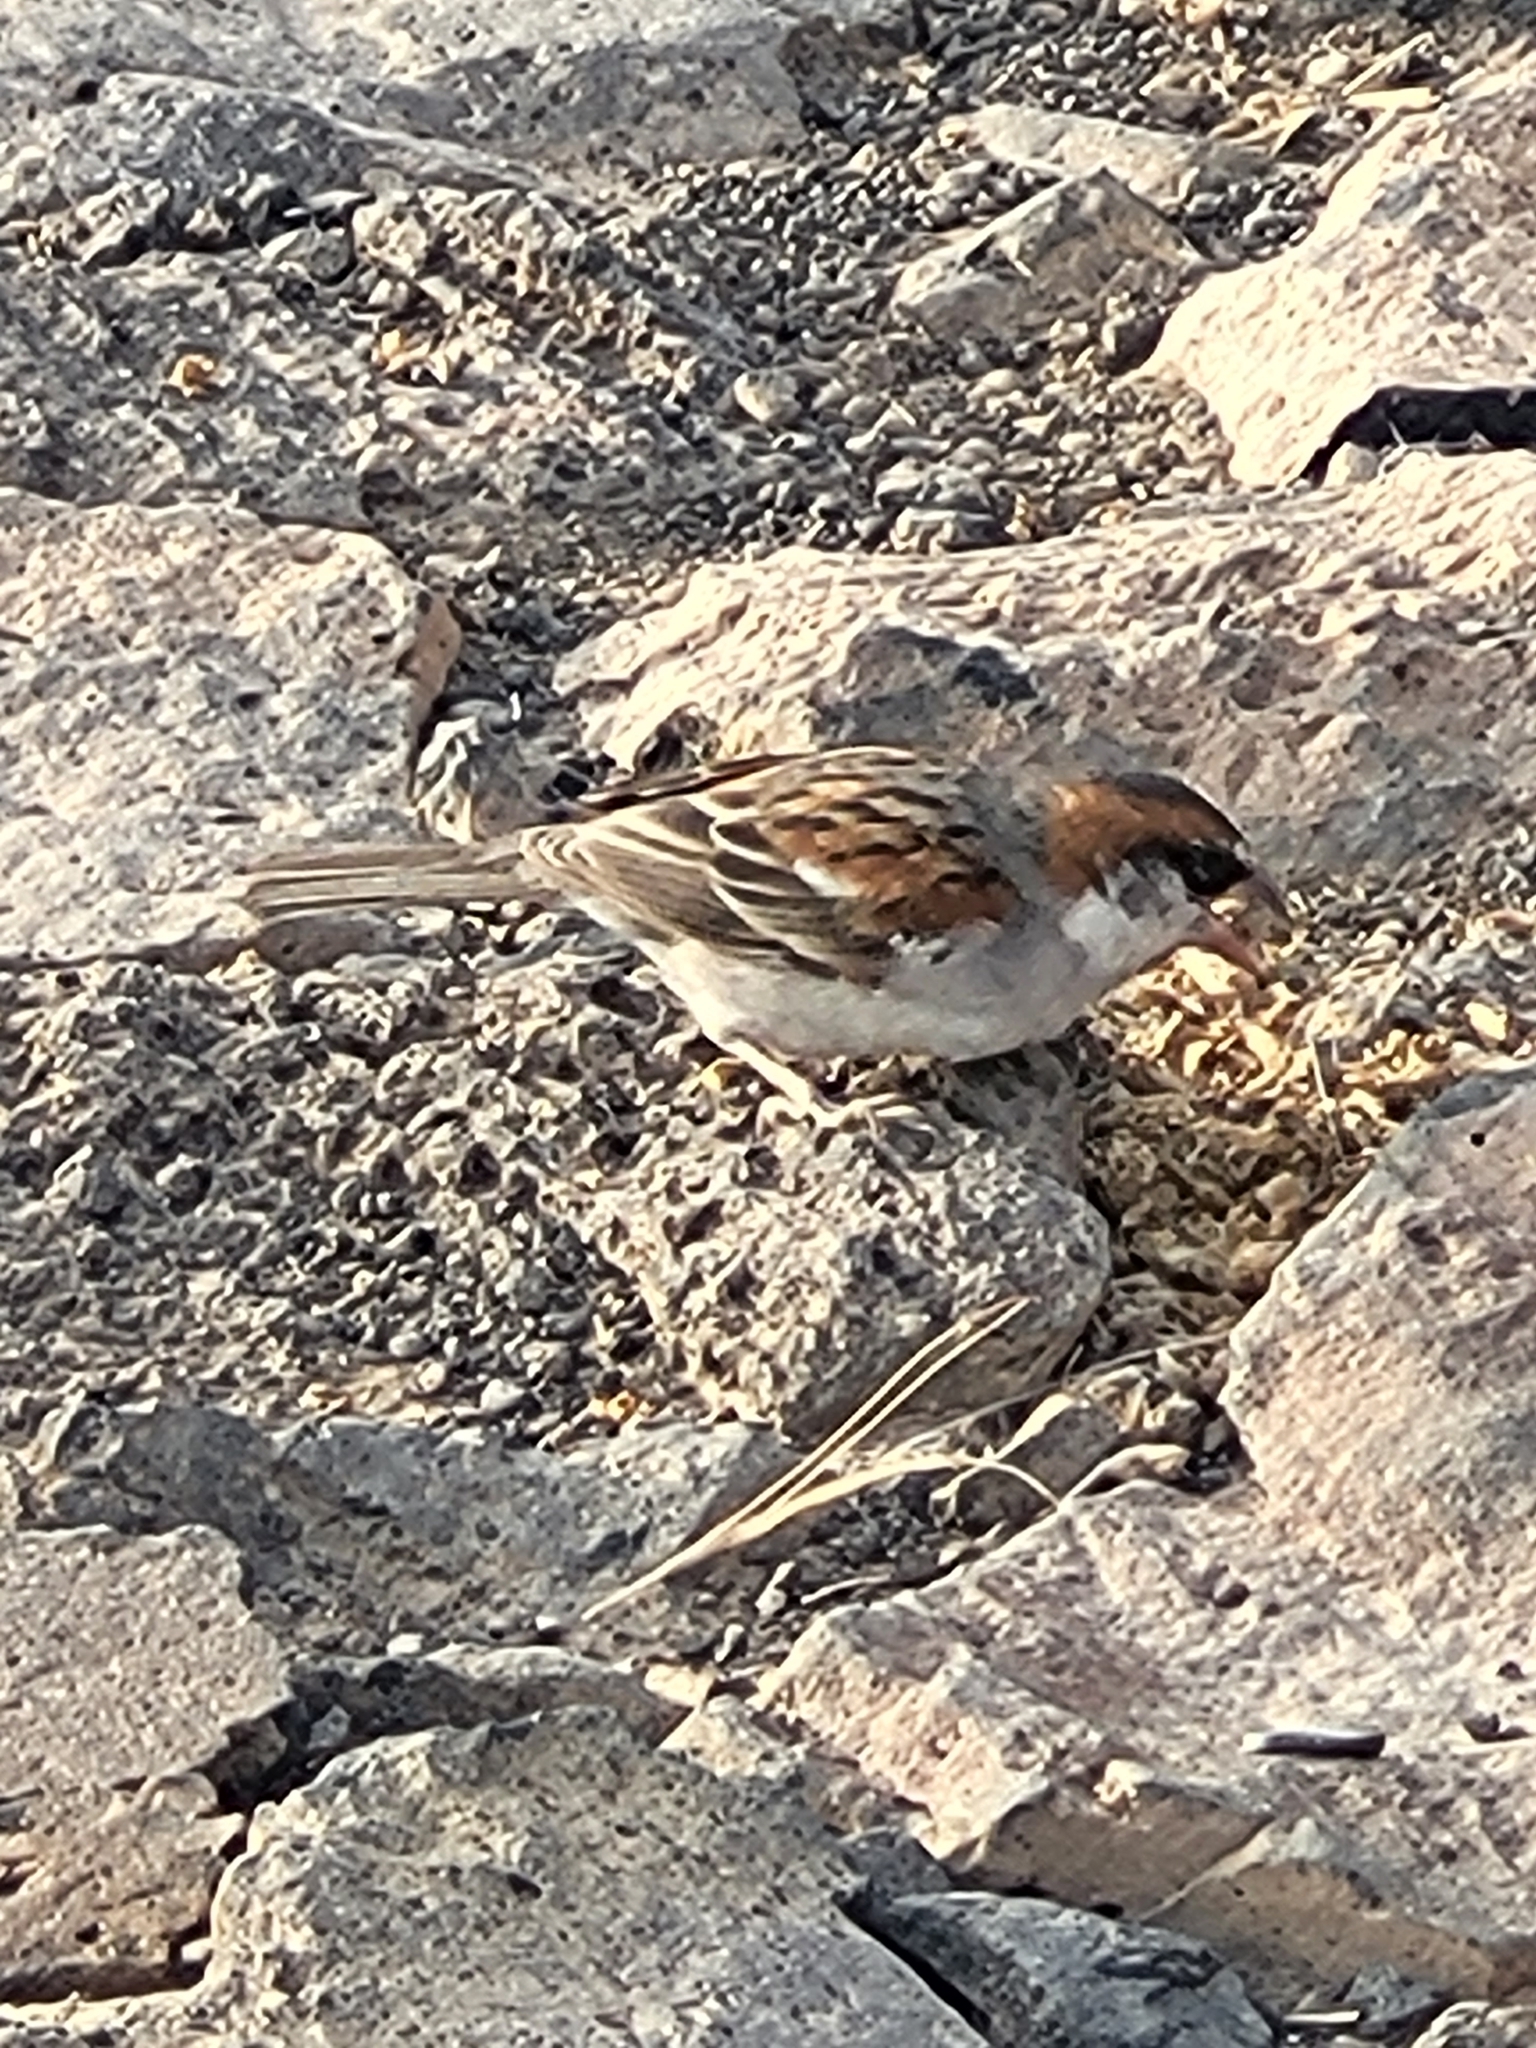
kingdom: Animalia
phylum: Chordata
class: Aves
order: Passeriformes
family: Passeridae
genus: Passer
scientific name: Passer iagoensis
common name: Iago sparrow
